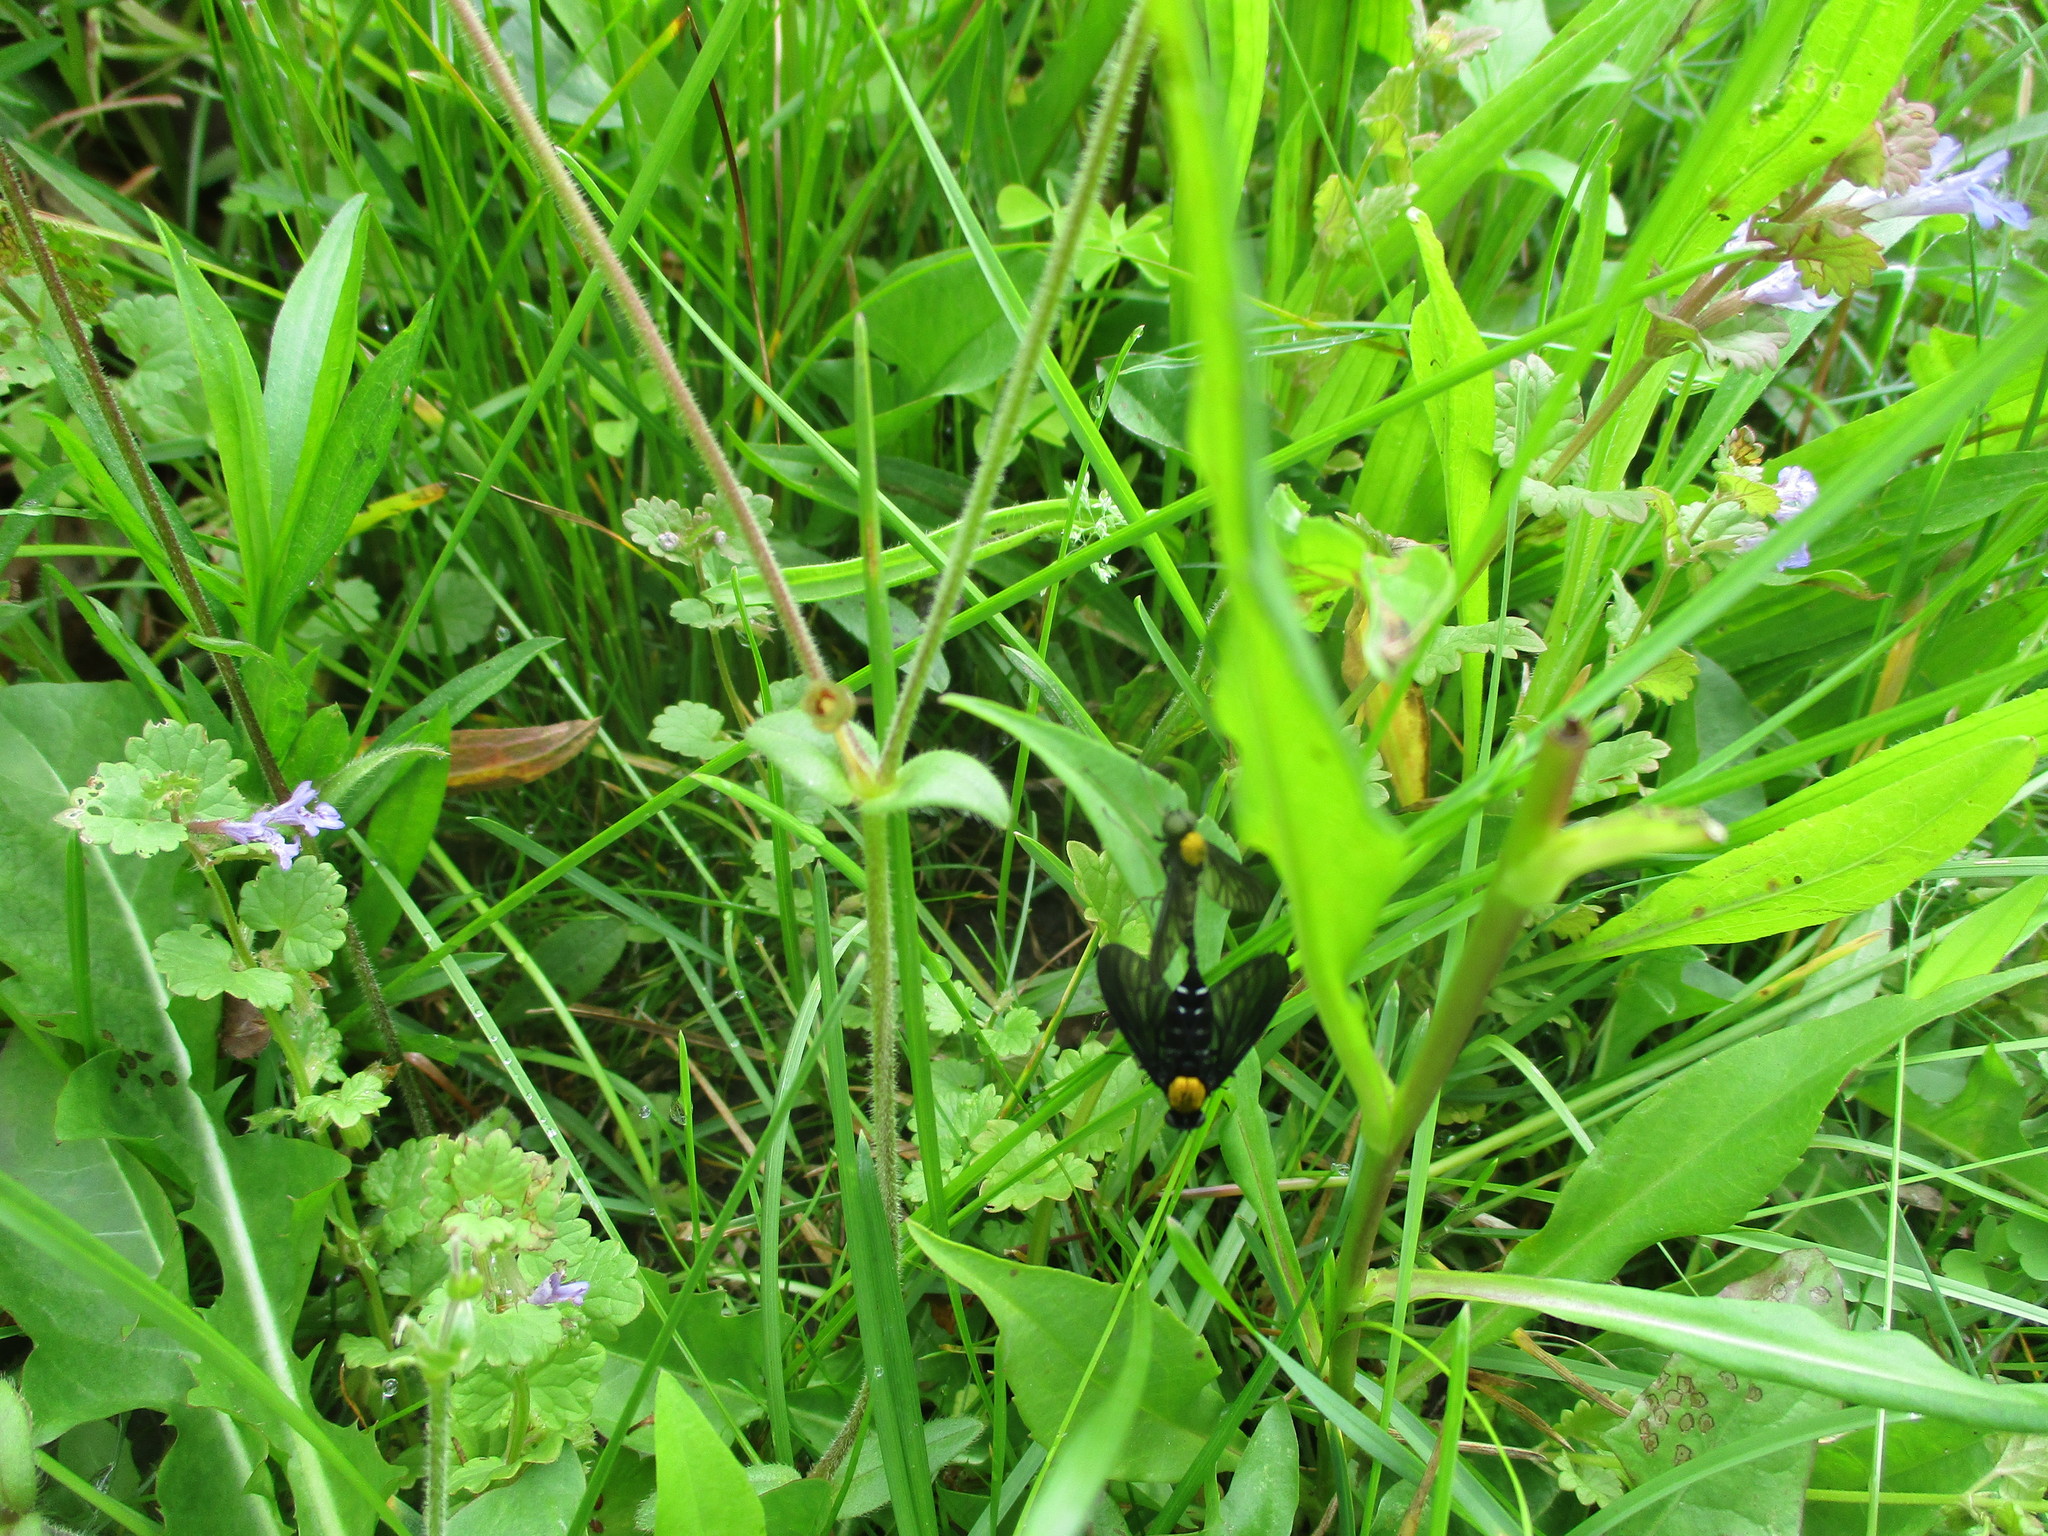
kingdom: Animalia
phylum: Arthropoda
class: Insecta
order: Diptera
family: Rhagionidae
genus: Chrysopilus
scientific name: Chrysopilus thoracicus
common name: Golden-backed snipe fly
